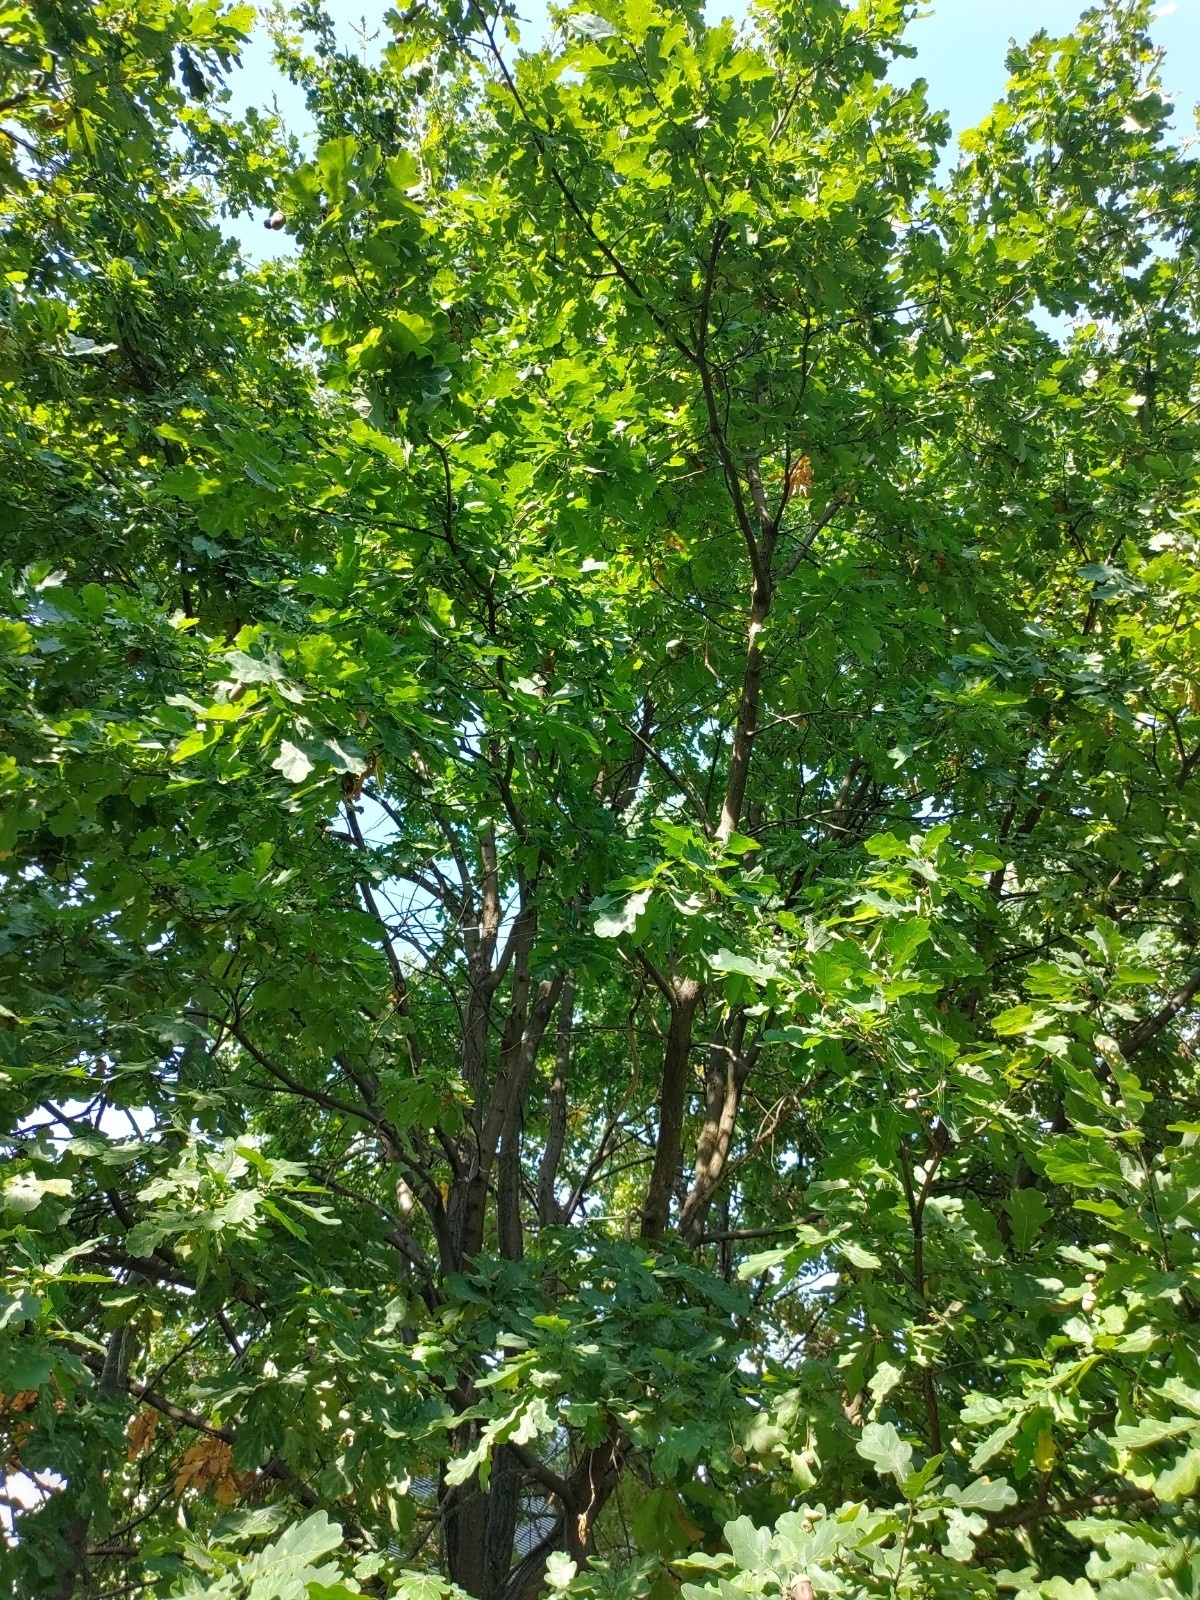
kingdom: Plantae
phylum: Tracheophyta
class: Magnoliopsida
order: Fagales
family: Fagaceae
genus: Quercus
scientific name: Quercus robur
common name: Pedunculate oak
